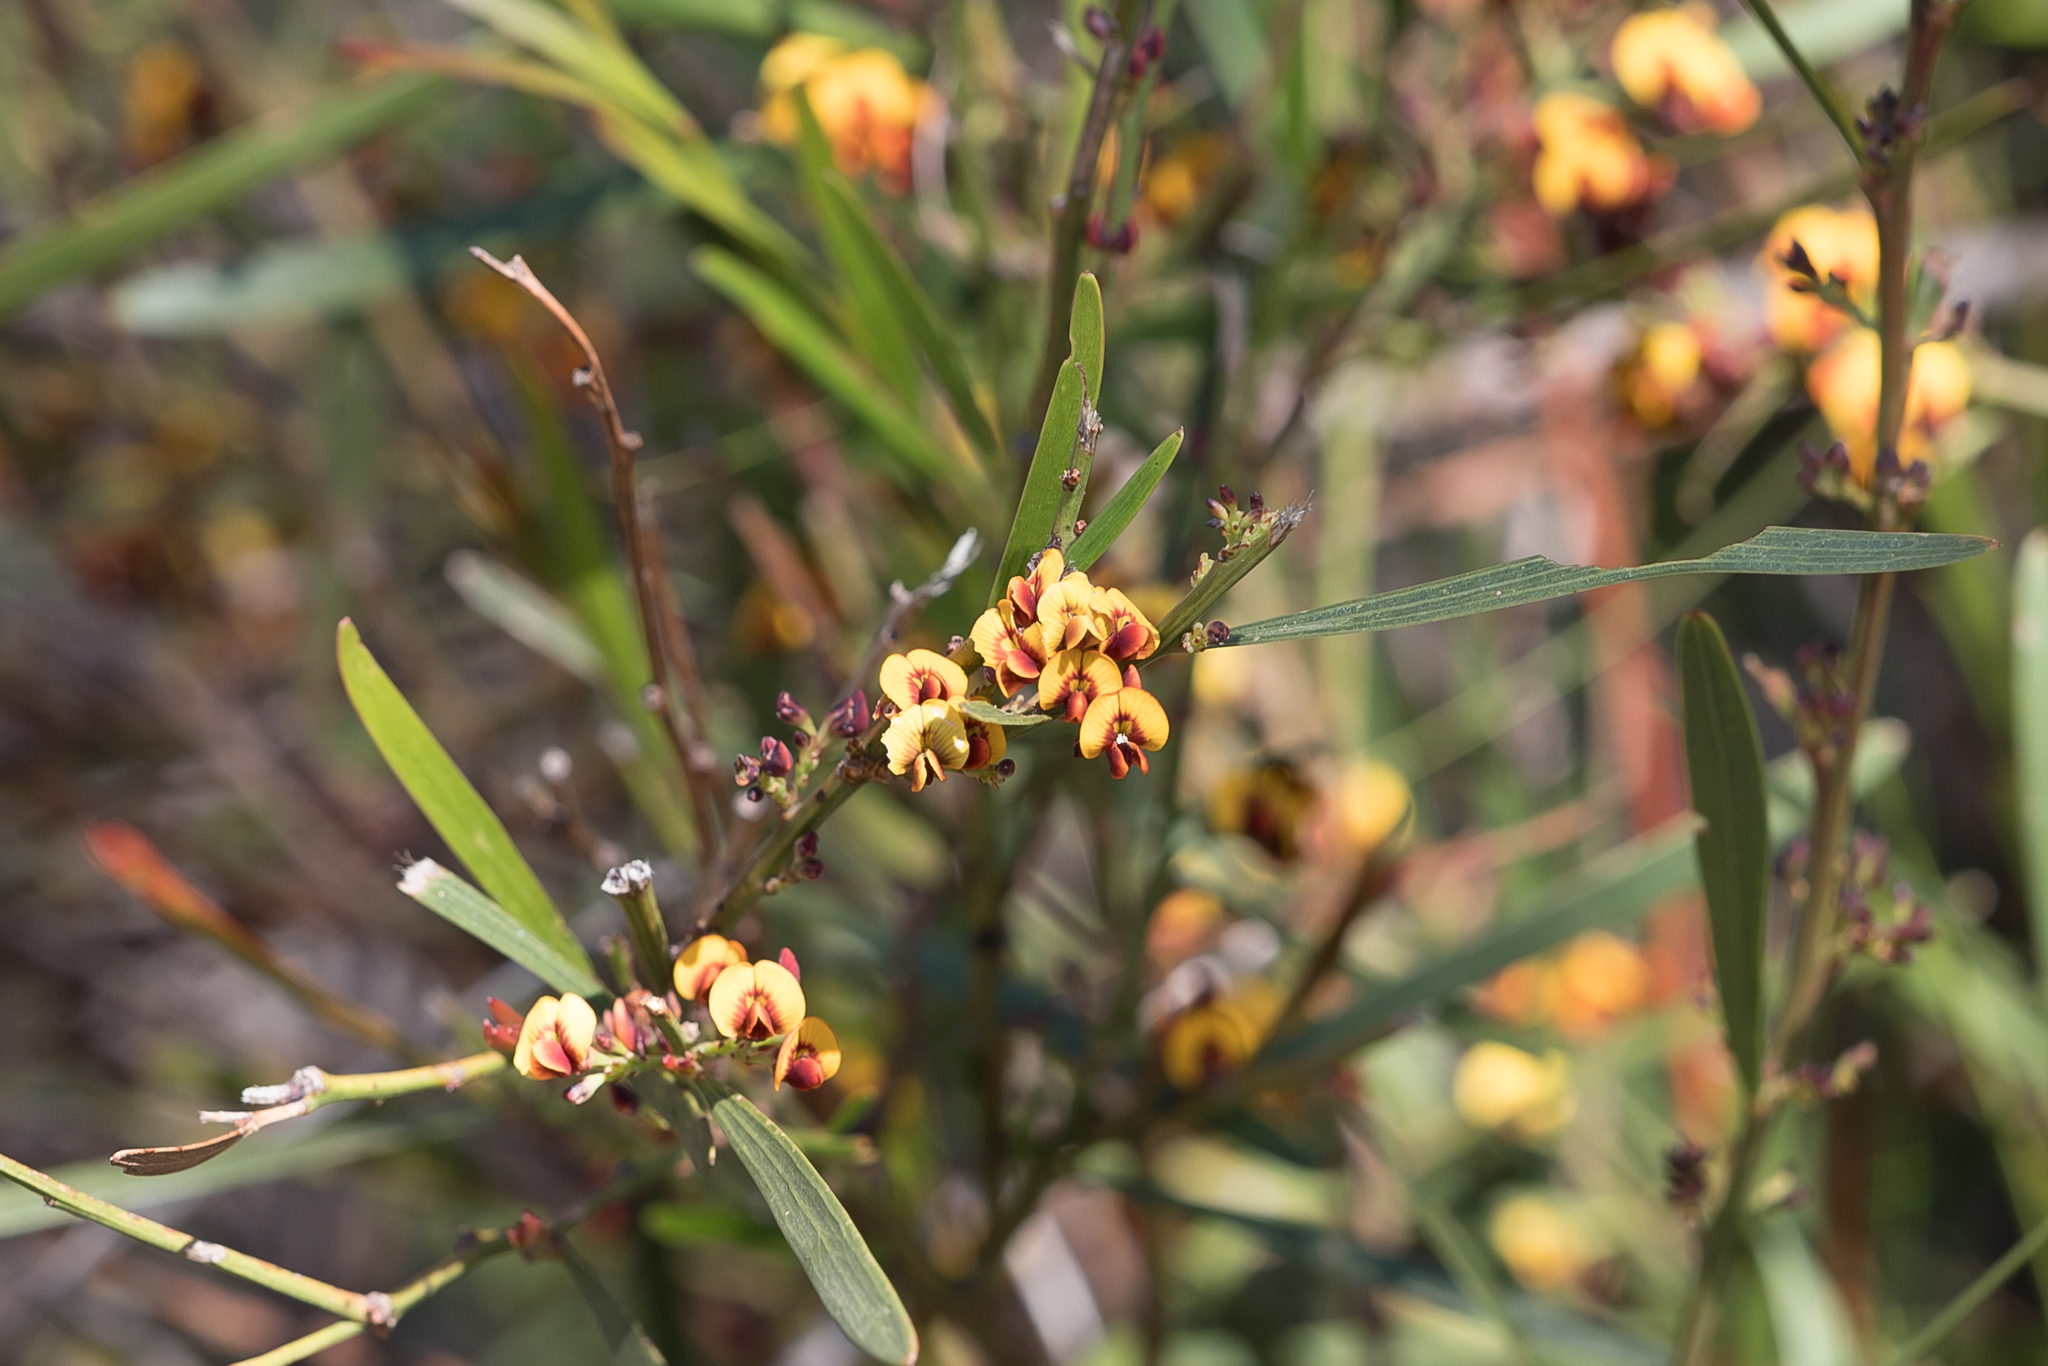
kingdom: Plantae
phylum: Tracheophyta
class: Magnoliopsida
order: Fabales
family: Fabaceae
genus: Daviesia
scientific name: Daviesia leptophylla
